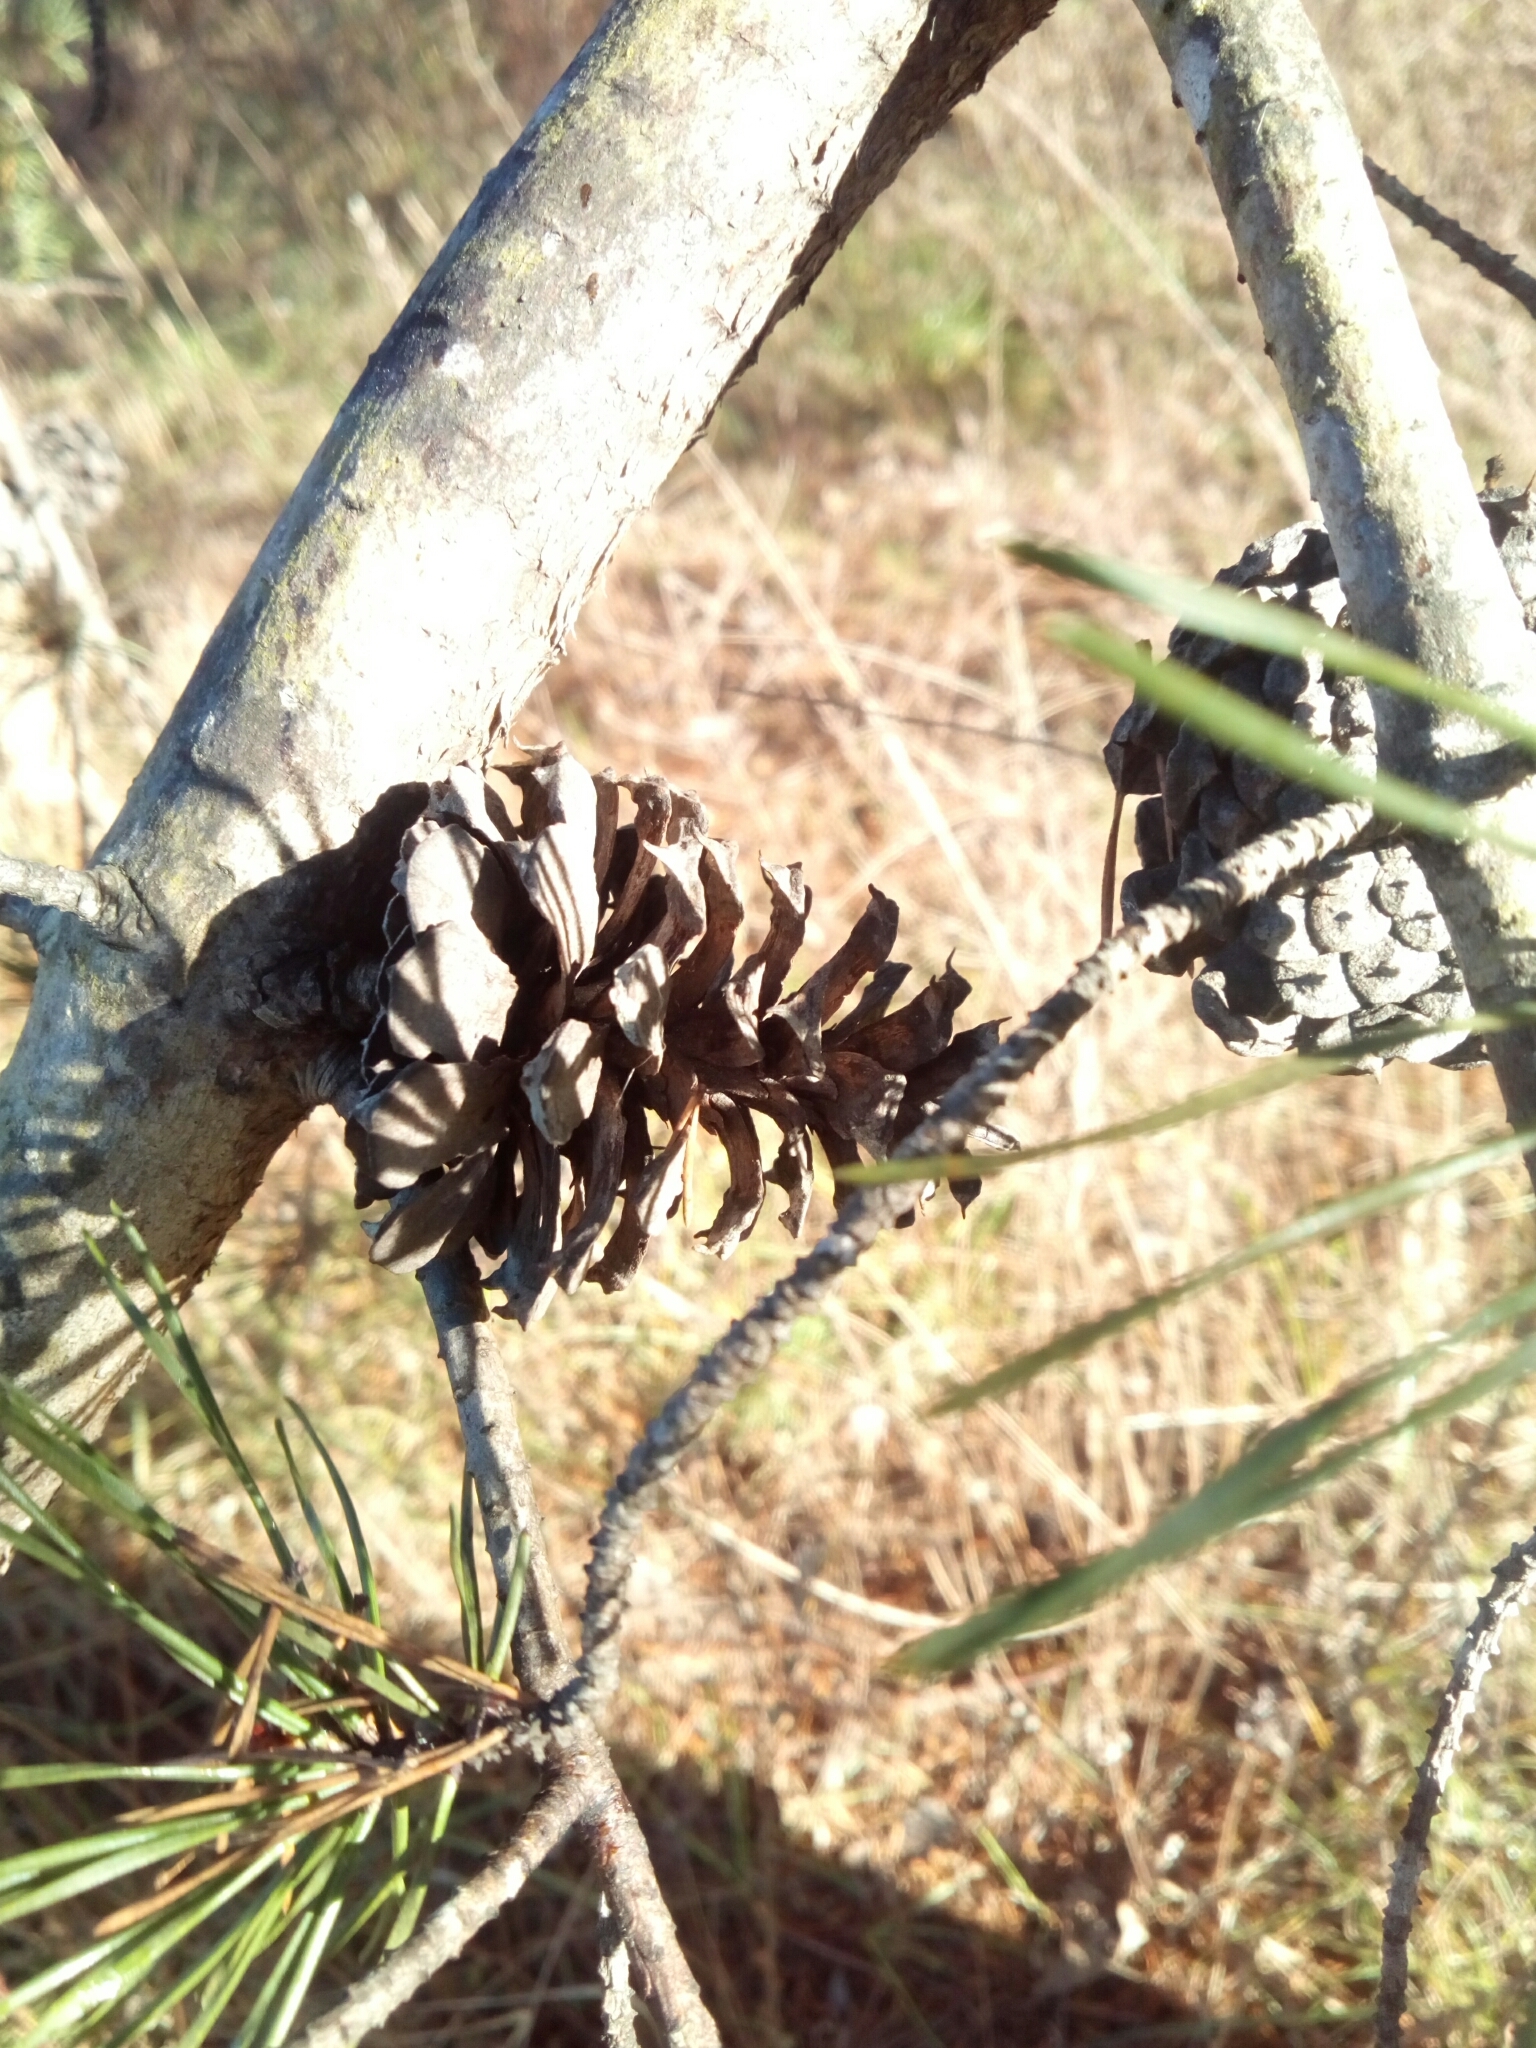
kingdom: Plantae
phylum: Tracheophyta
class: Pinopsida
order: Pinales
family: Pinaceae
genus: Pinus
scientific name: Pinus virginiana
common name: Scrub pine
